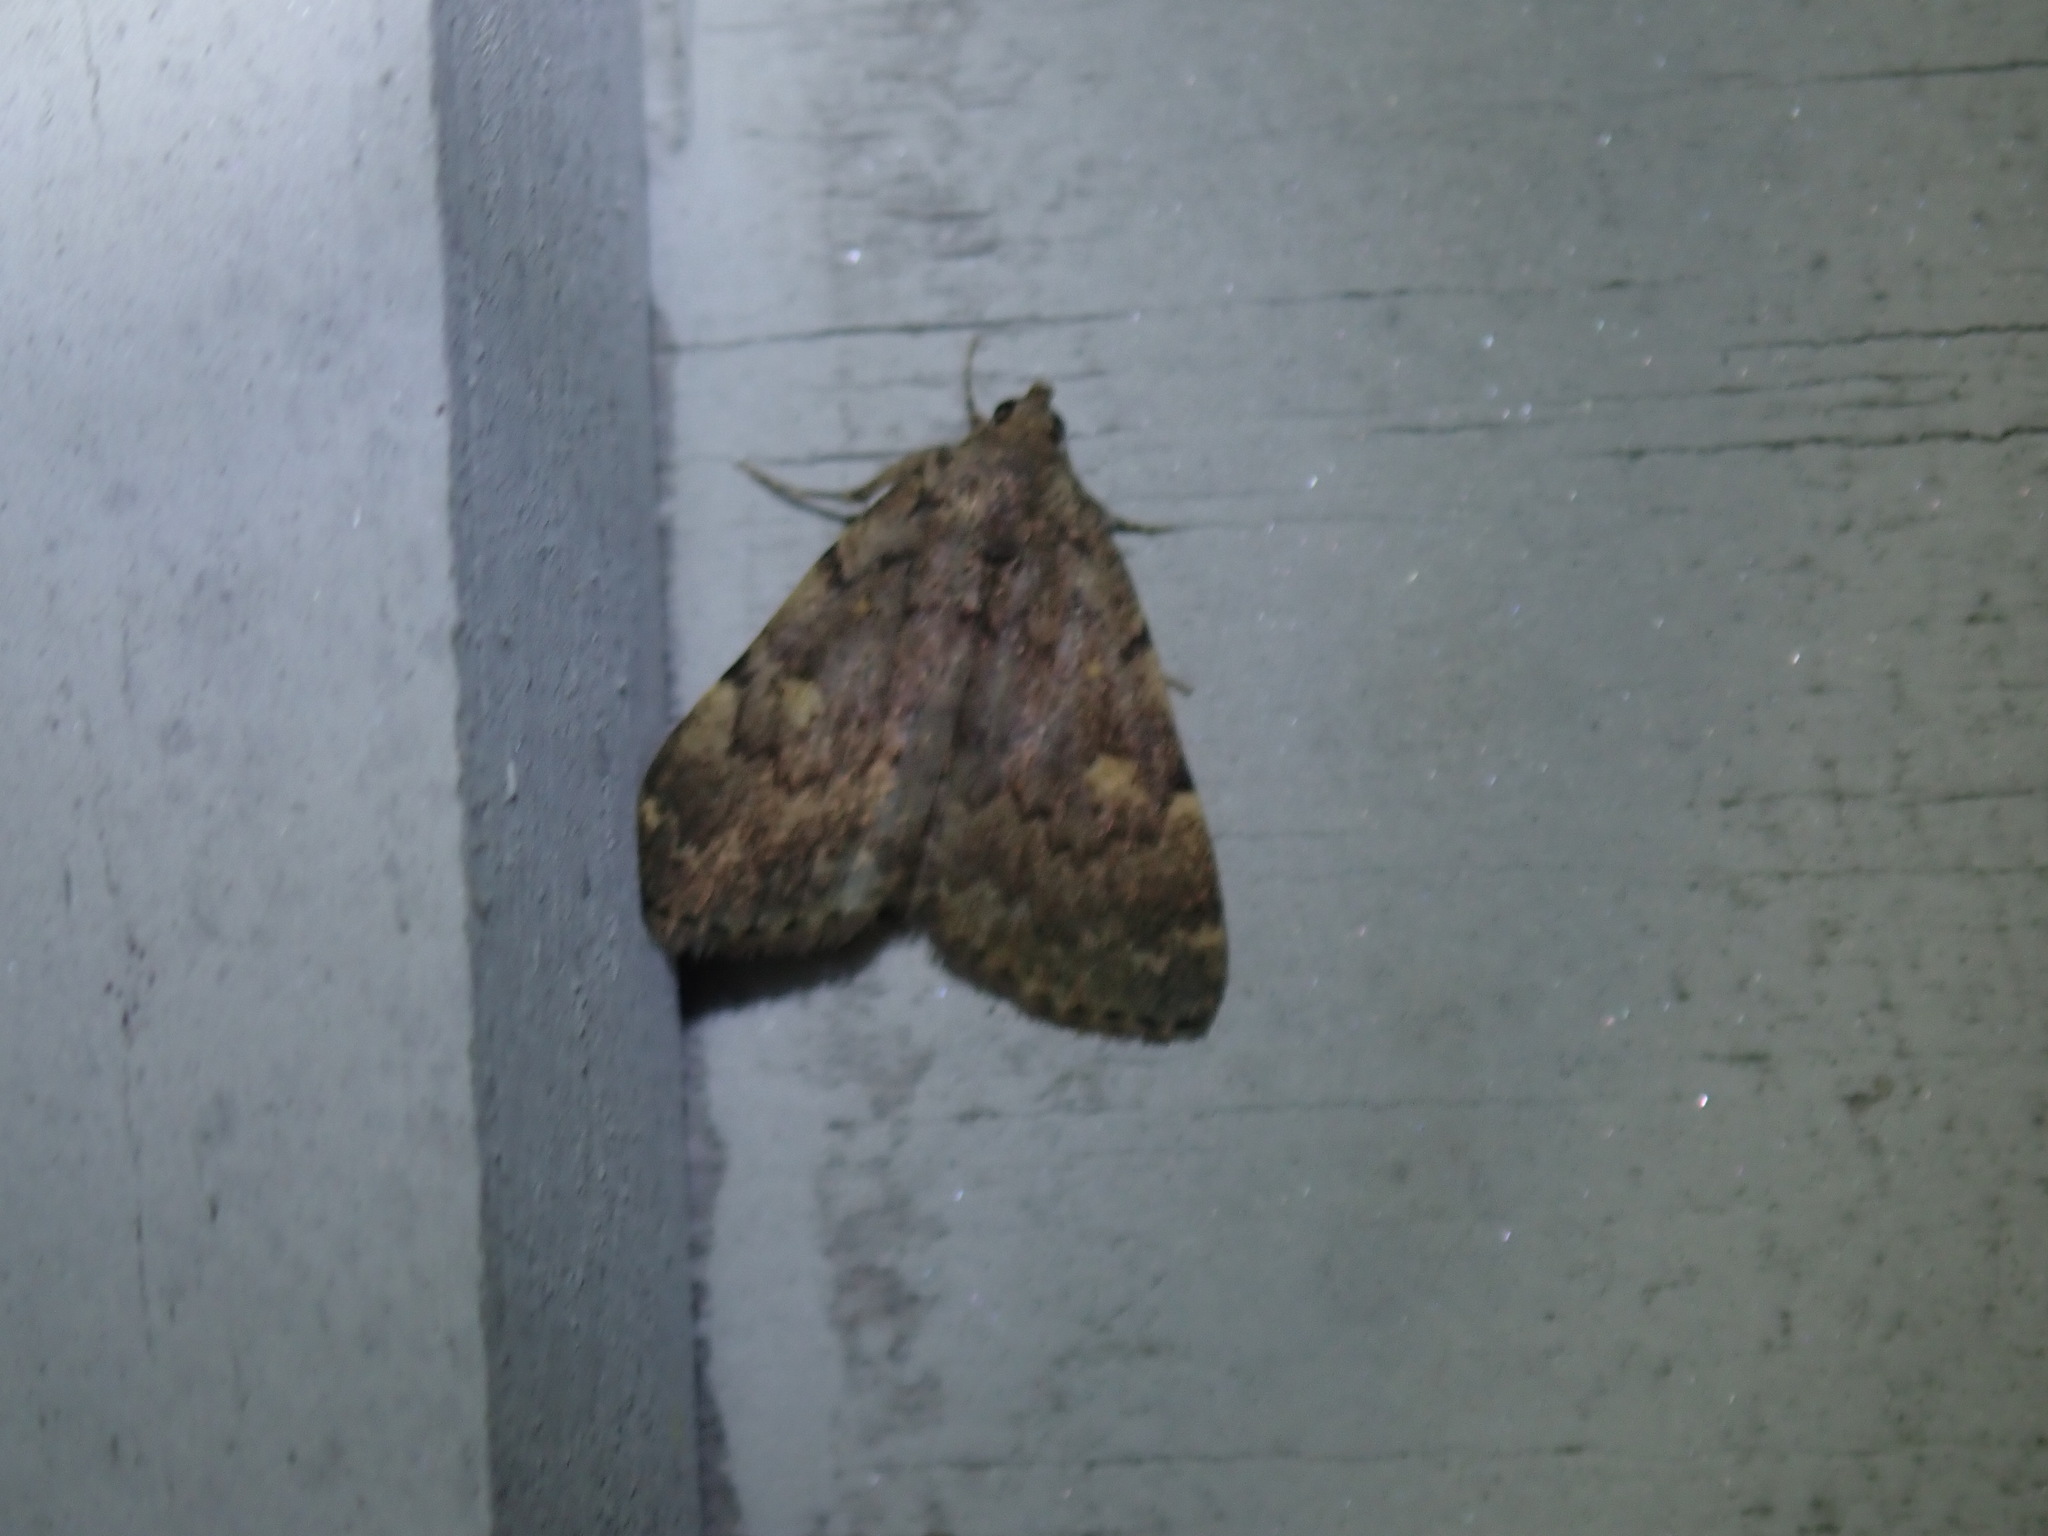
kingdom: Animalia
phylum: Arthropoda
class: Insecta
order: Lepidoptera
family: Erebidae
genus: Idia
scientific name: Idia aemula
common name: Common idia moth
